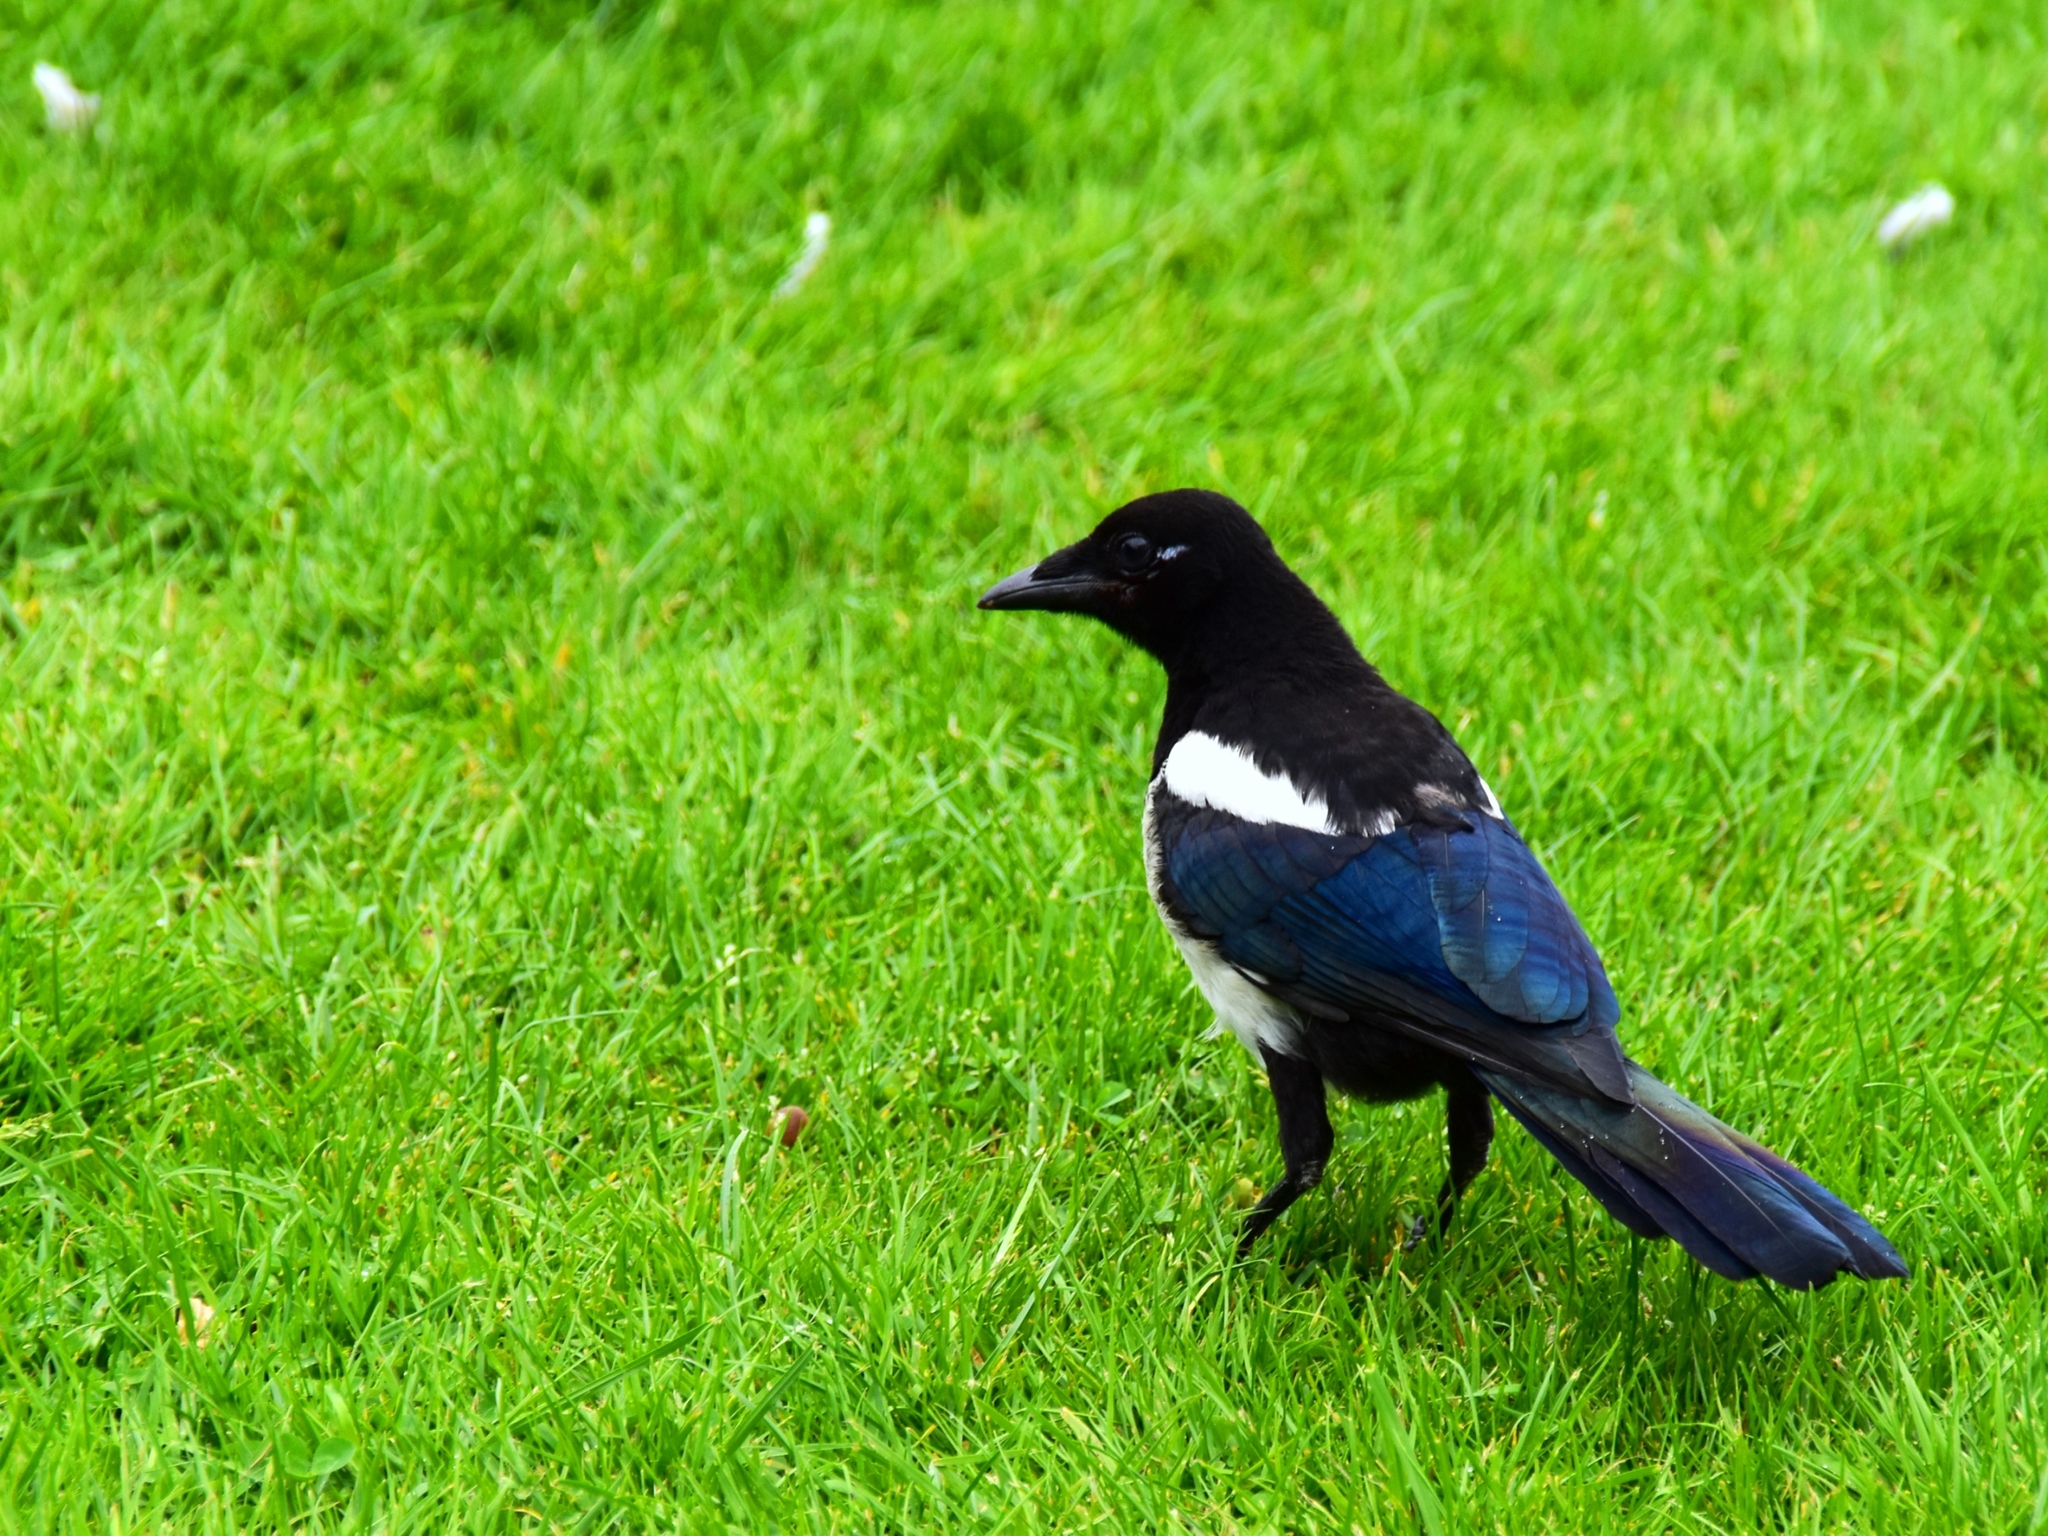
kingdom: Animalia
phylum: Chordata
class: Aves
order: Passeriformes
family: Corvidae
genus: Pica
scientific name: Pica pica
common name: Eurasian magpie
